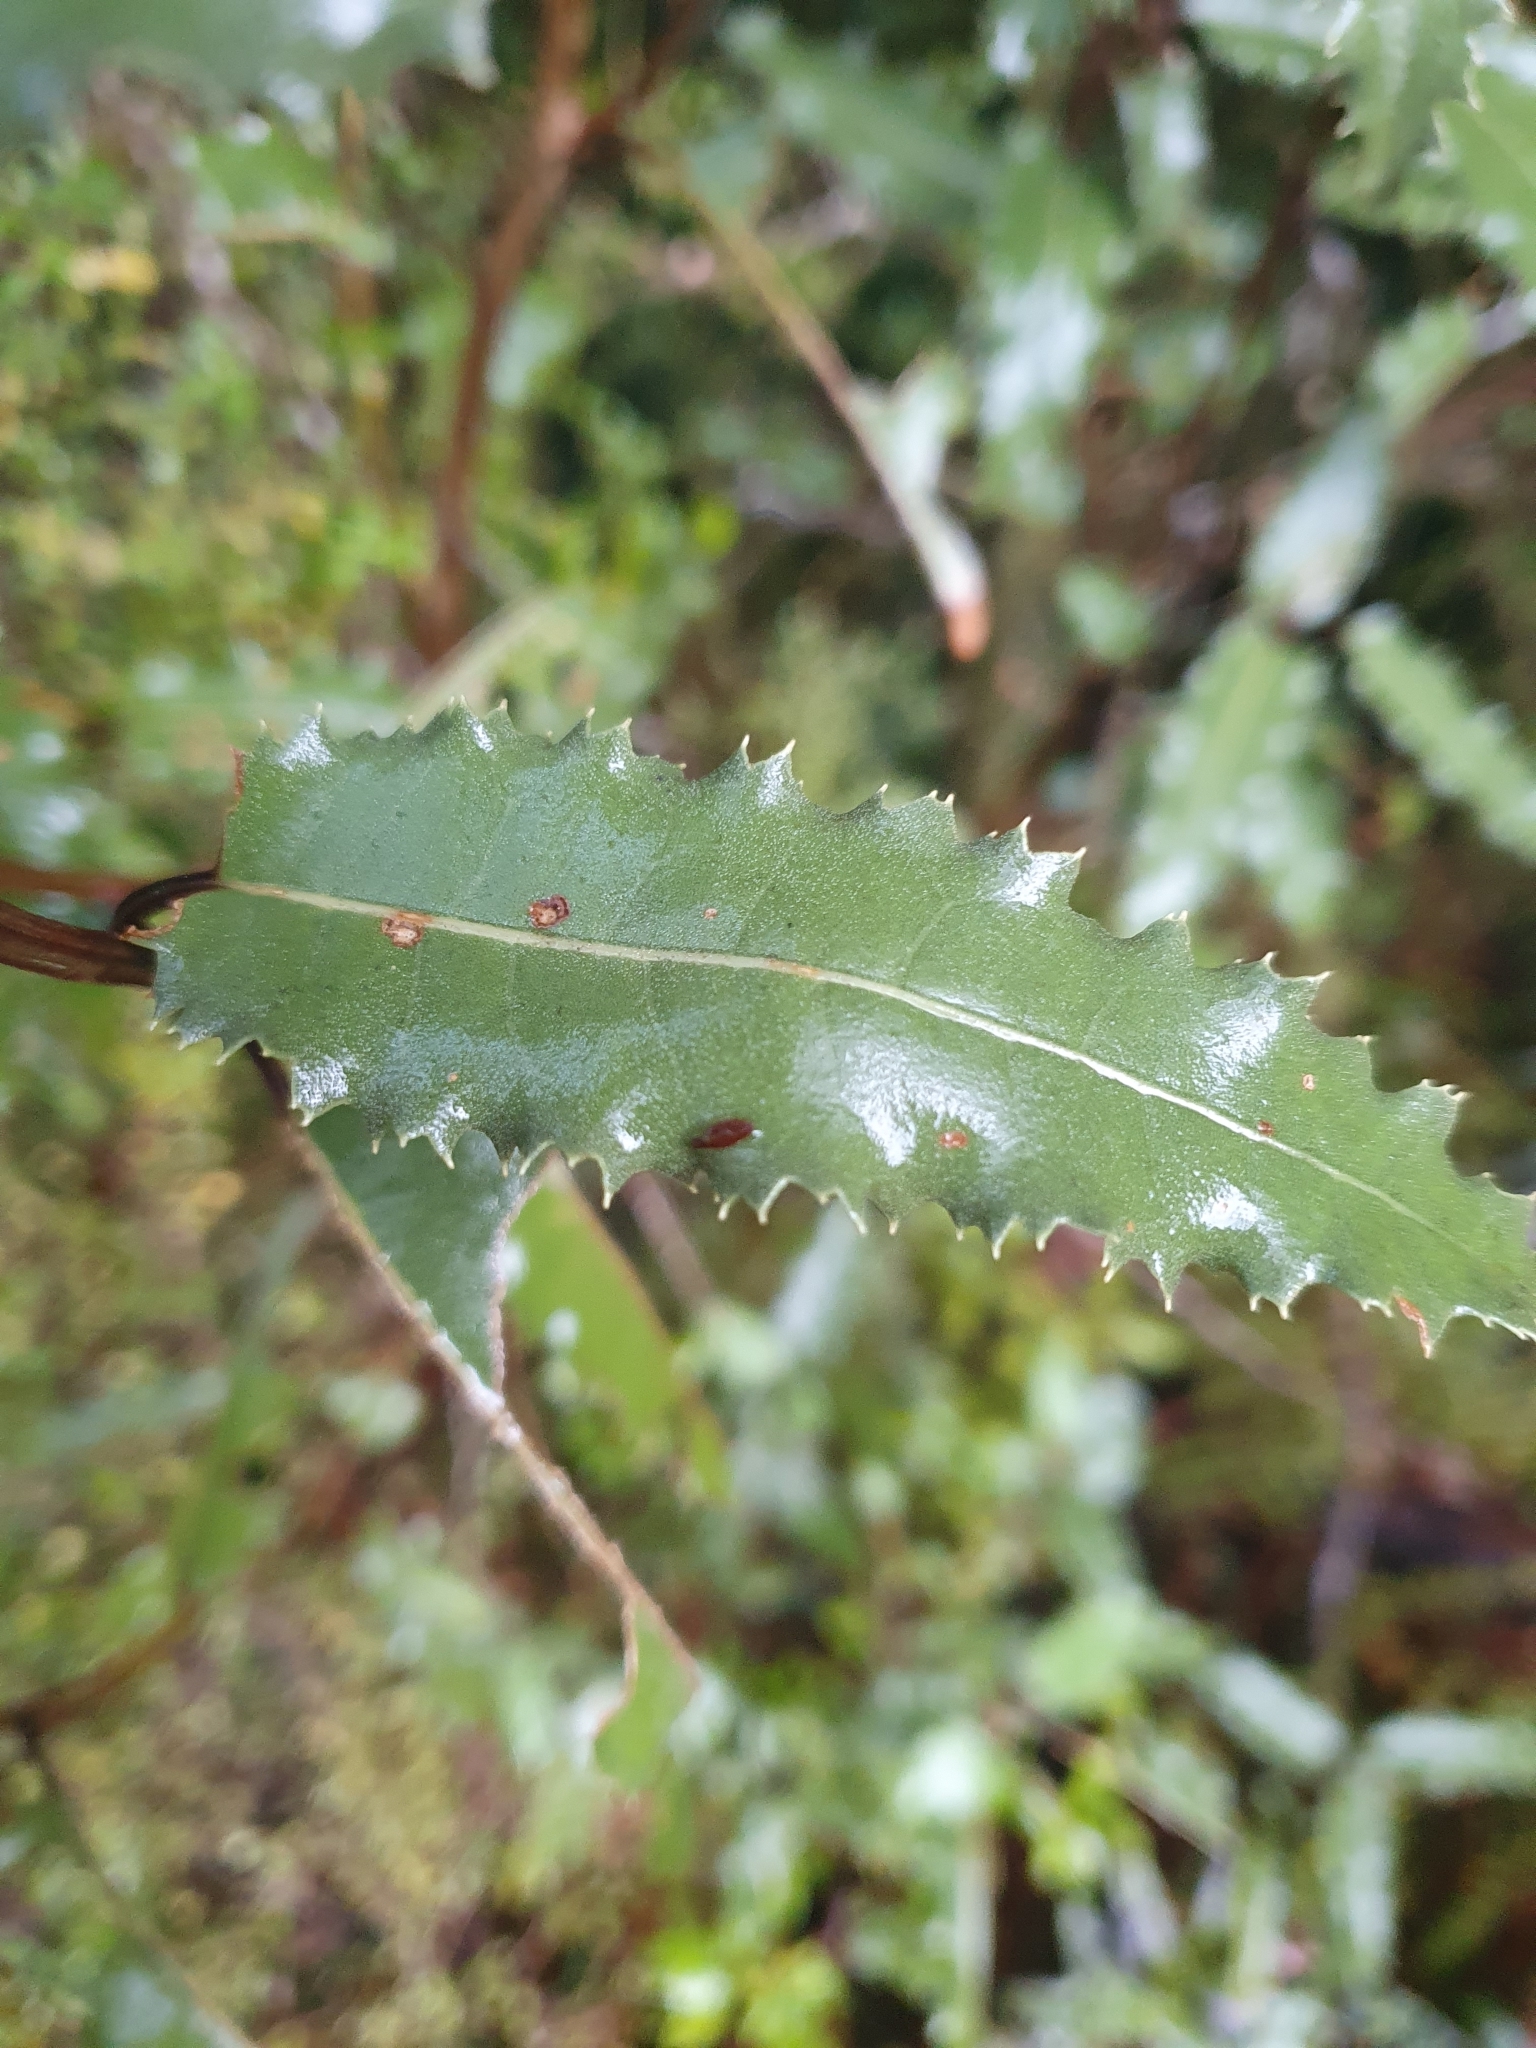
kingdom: Plantae
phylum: Tracheophyta
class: Magnoliopsida
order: Asterales
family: Asteraceae
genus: Olearia
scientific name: Olearia ilicifolia
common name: Maori-holly
